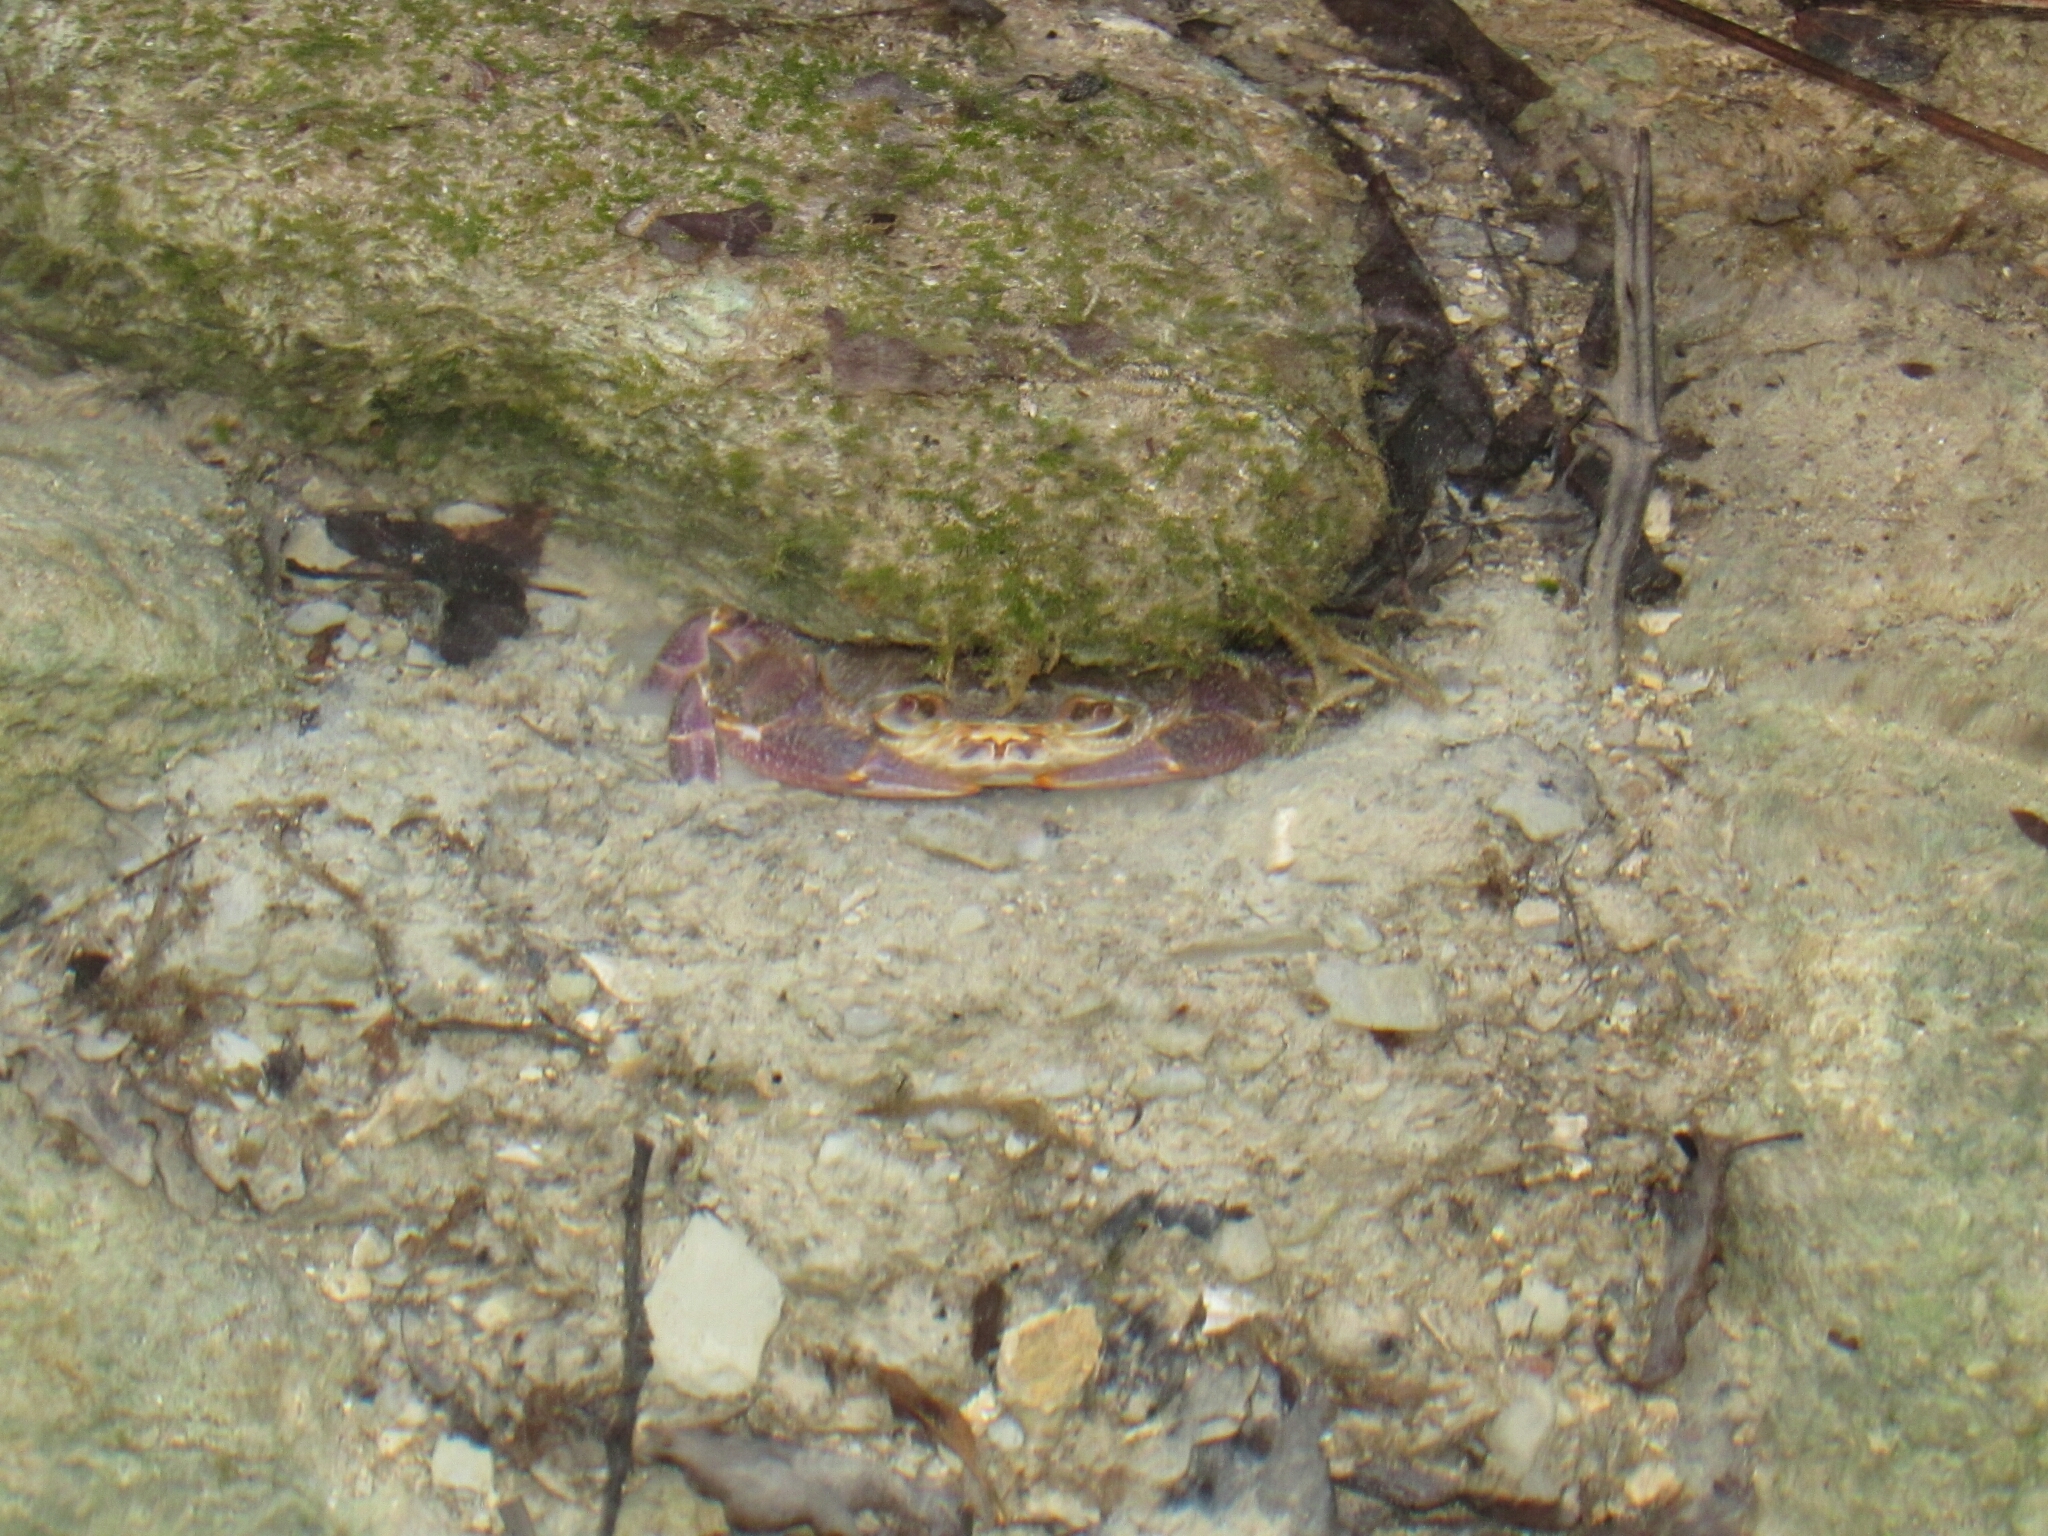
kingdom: Animalia
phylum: Arthropoda
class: Malacostraca
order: Decapoda
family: Potamidae
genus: Potamon
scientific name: Potamon fluviatile
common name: Italian freshwater crab
